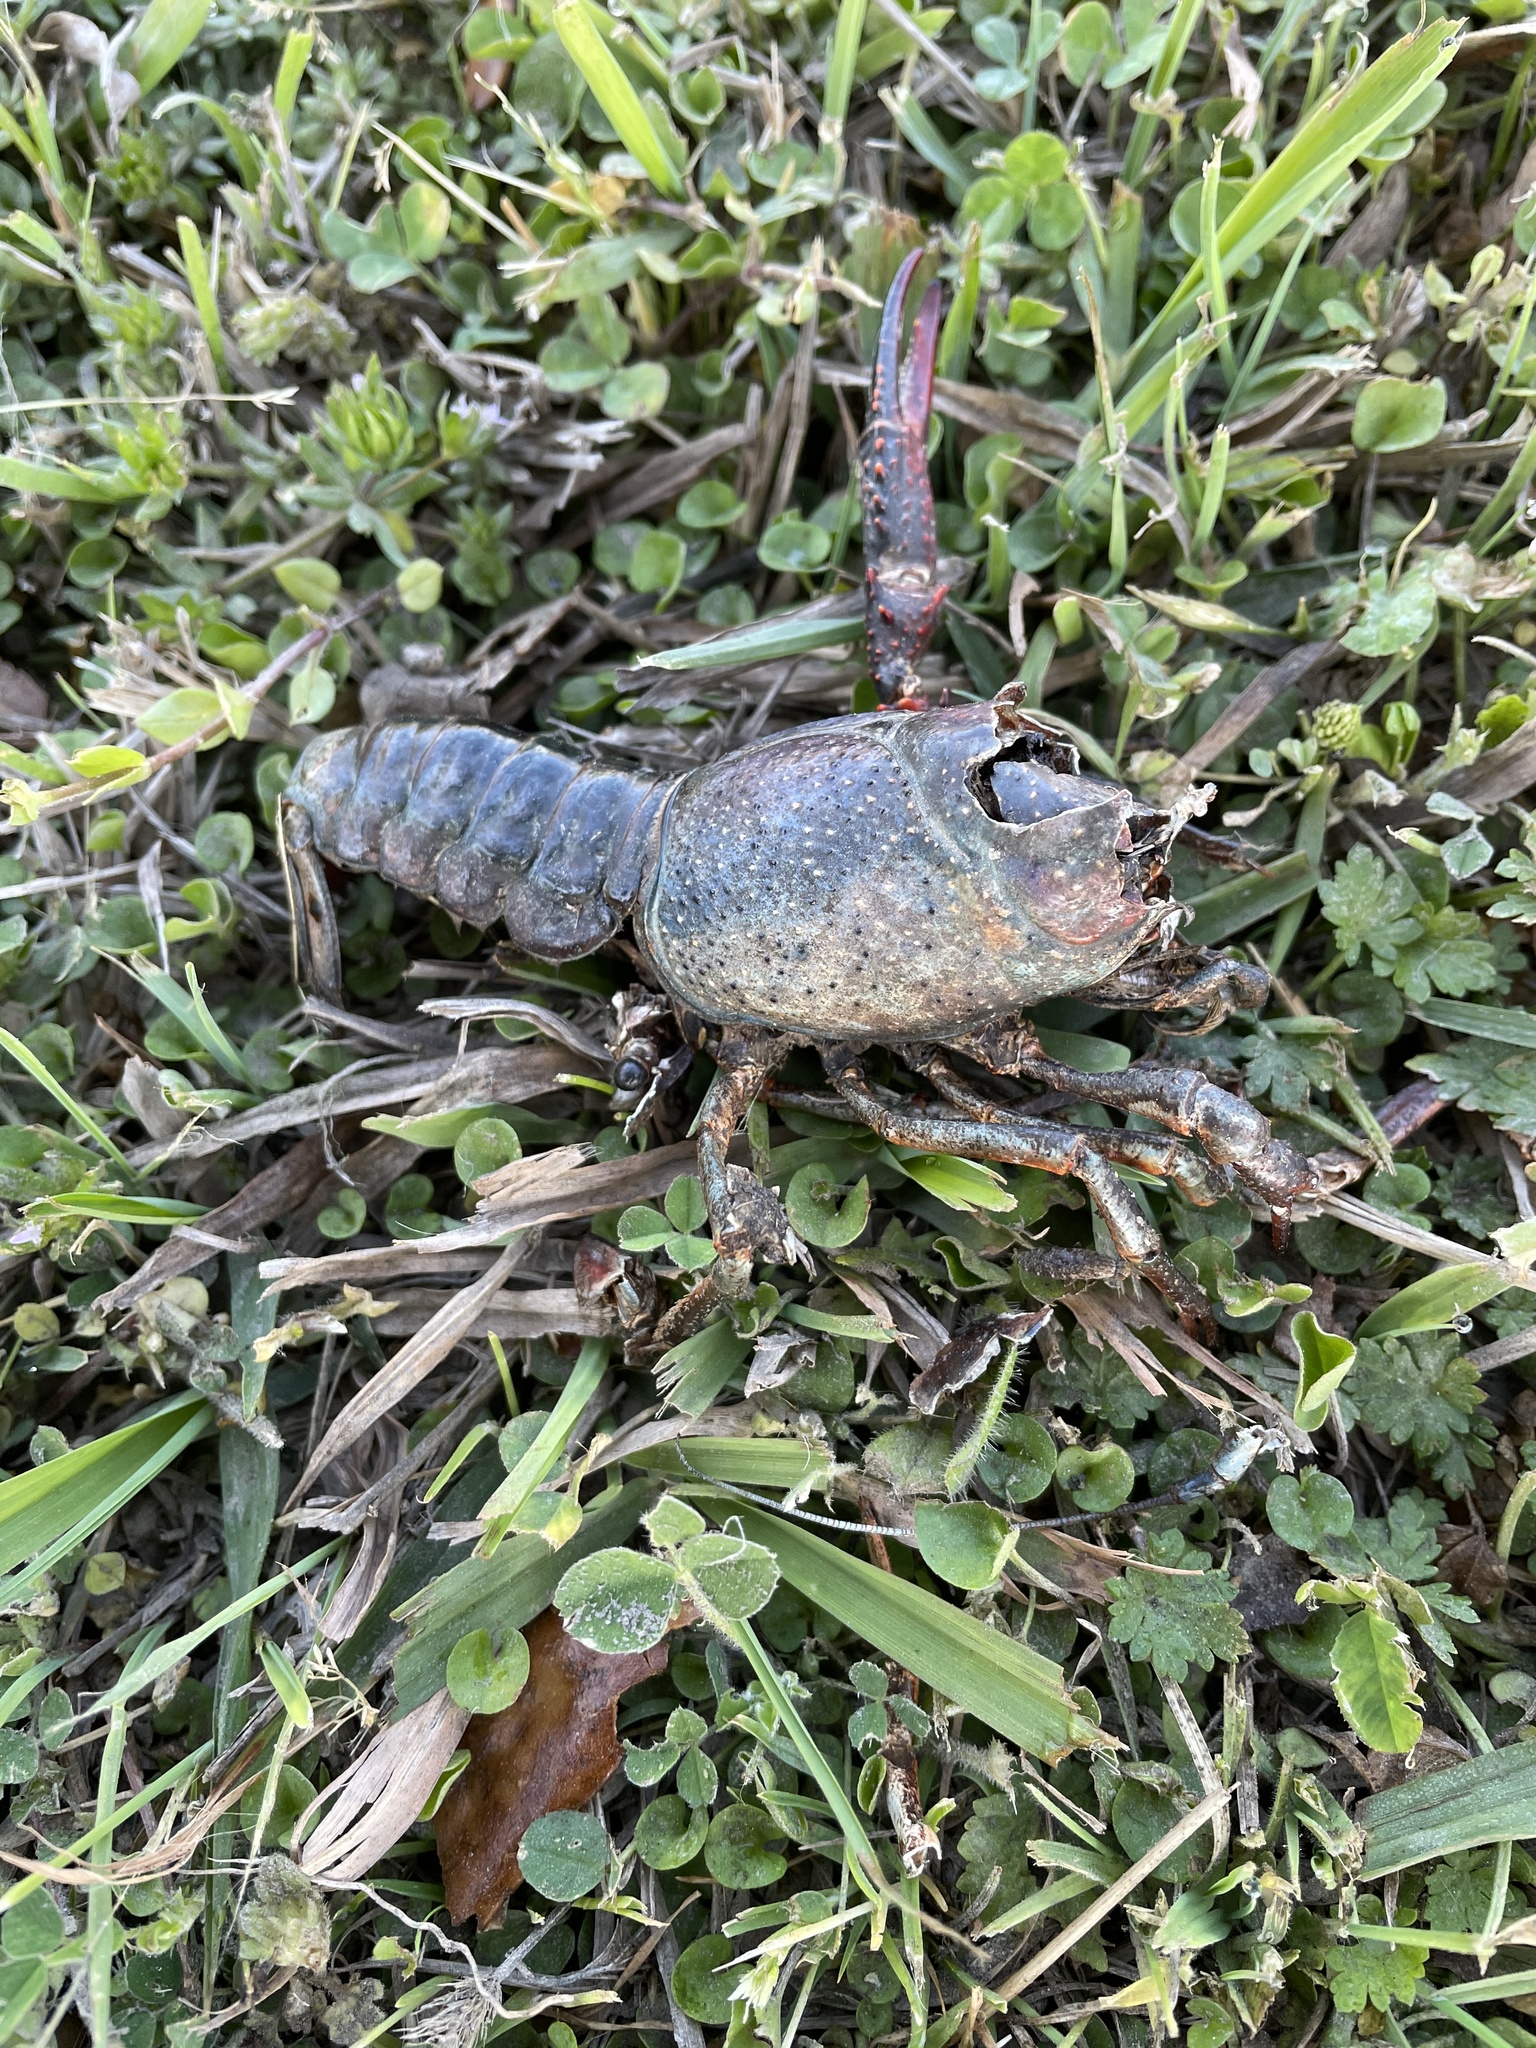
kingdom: Animalia
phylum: Arthropoda
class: Malacostraca
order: Decapoda
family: Cambaridae
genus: Procambarus
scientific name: Procambarus clarkii
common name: Red swamp crayfish
